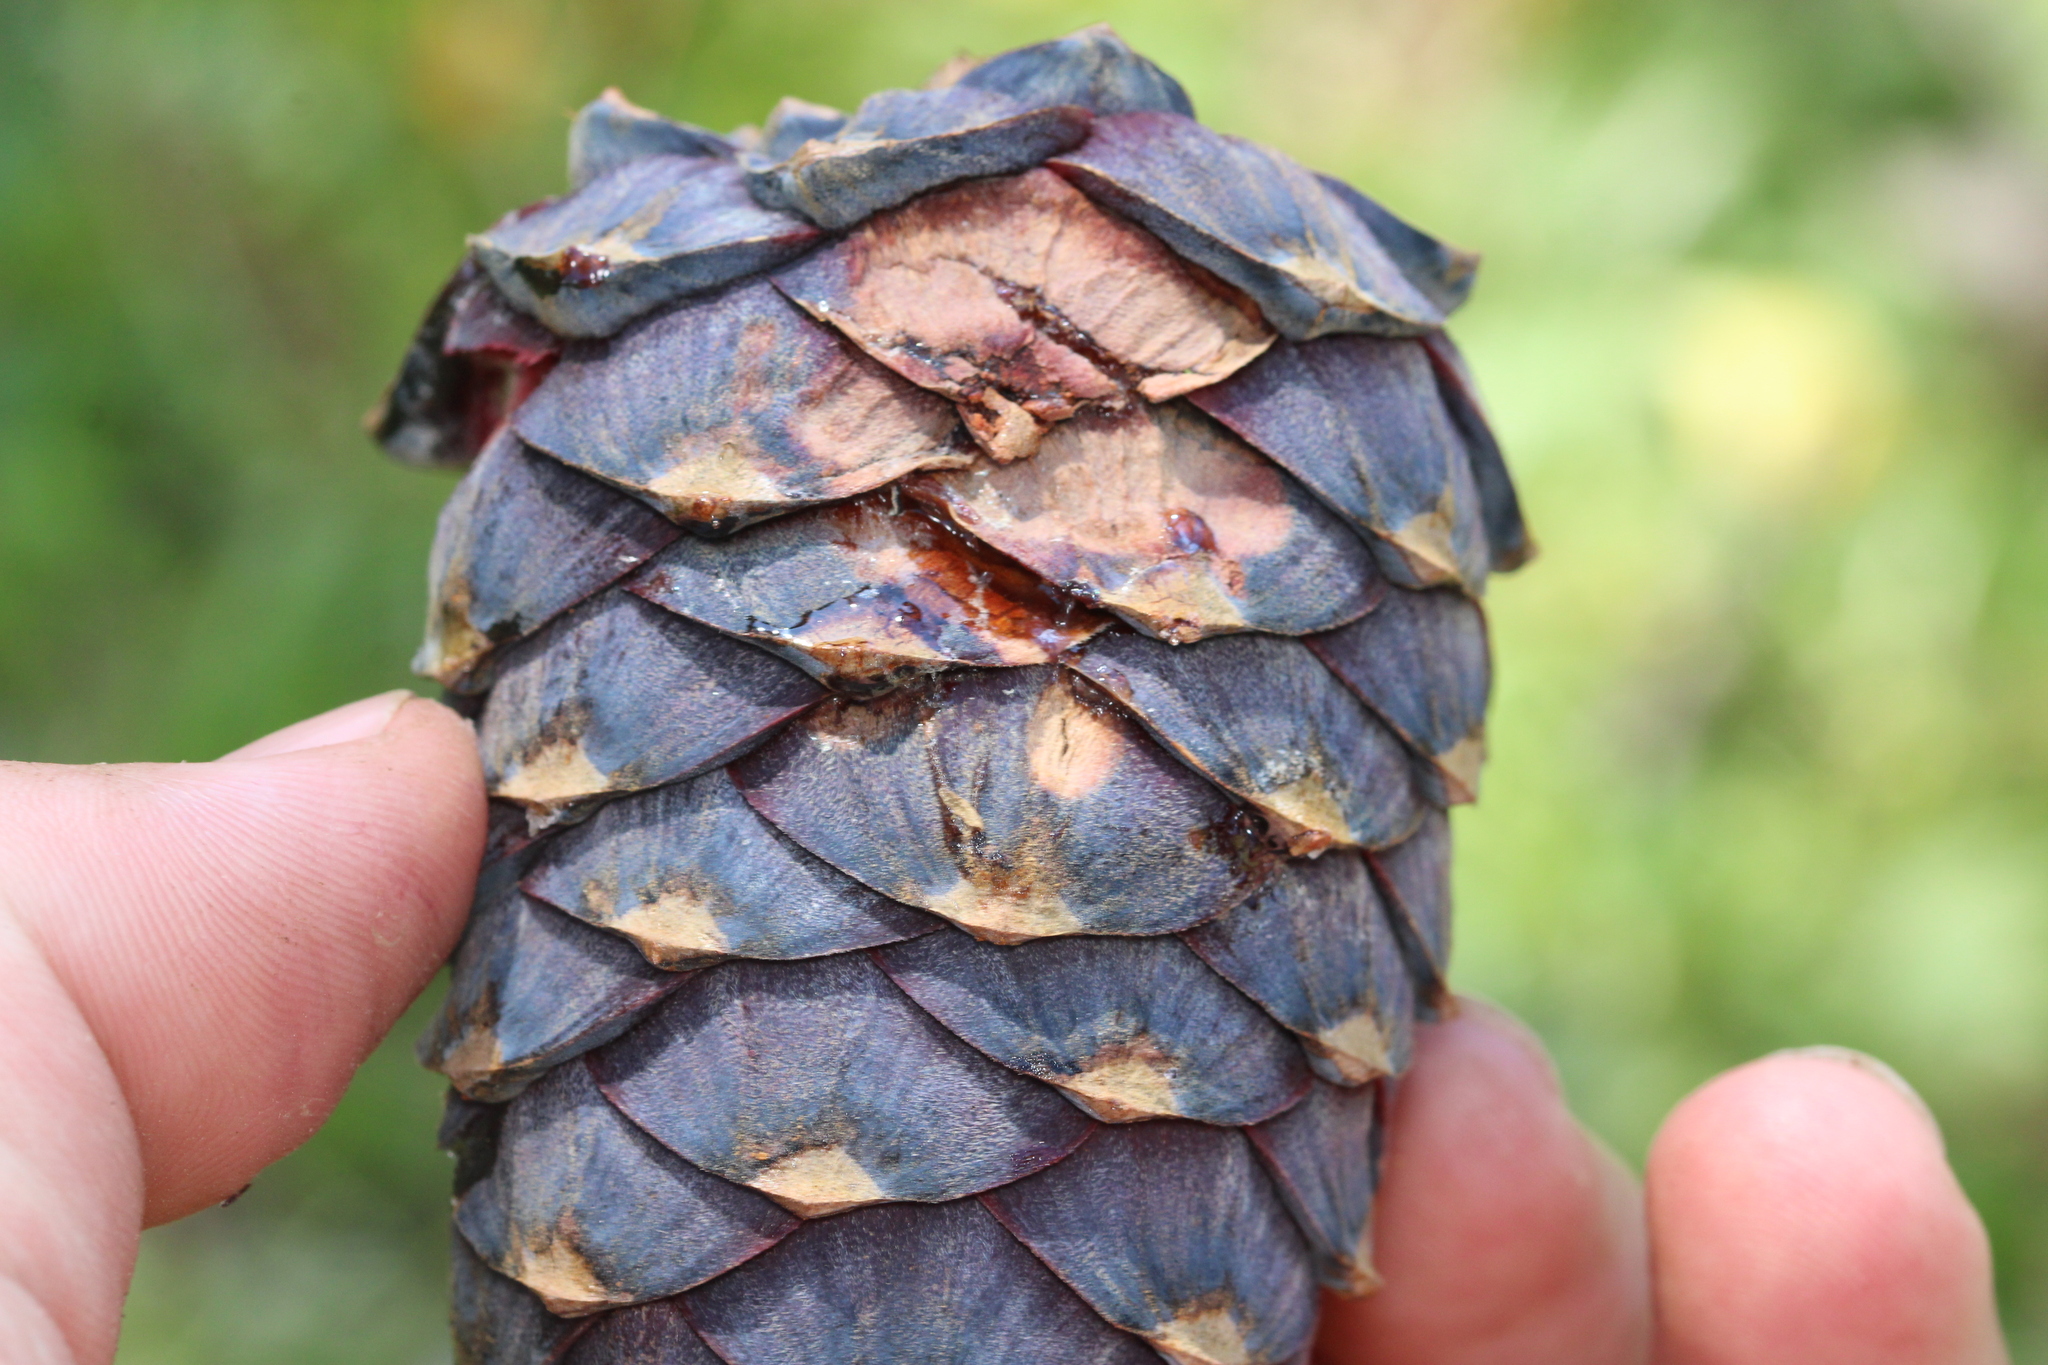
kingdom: Plantae
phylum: Tracheophyta
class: Pinopsida
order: Pinales
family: Pinaceae
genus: Pinus
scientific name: Pinus cembra
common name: Arolla pine
